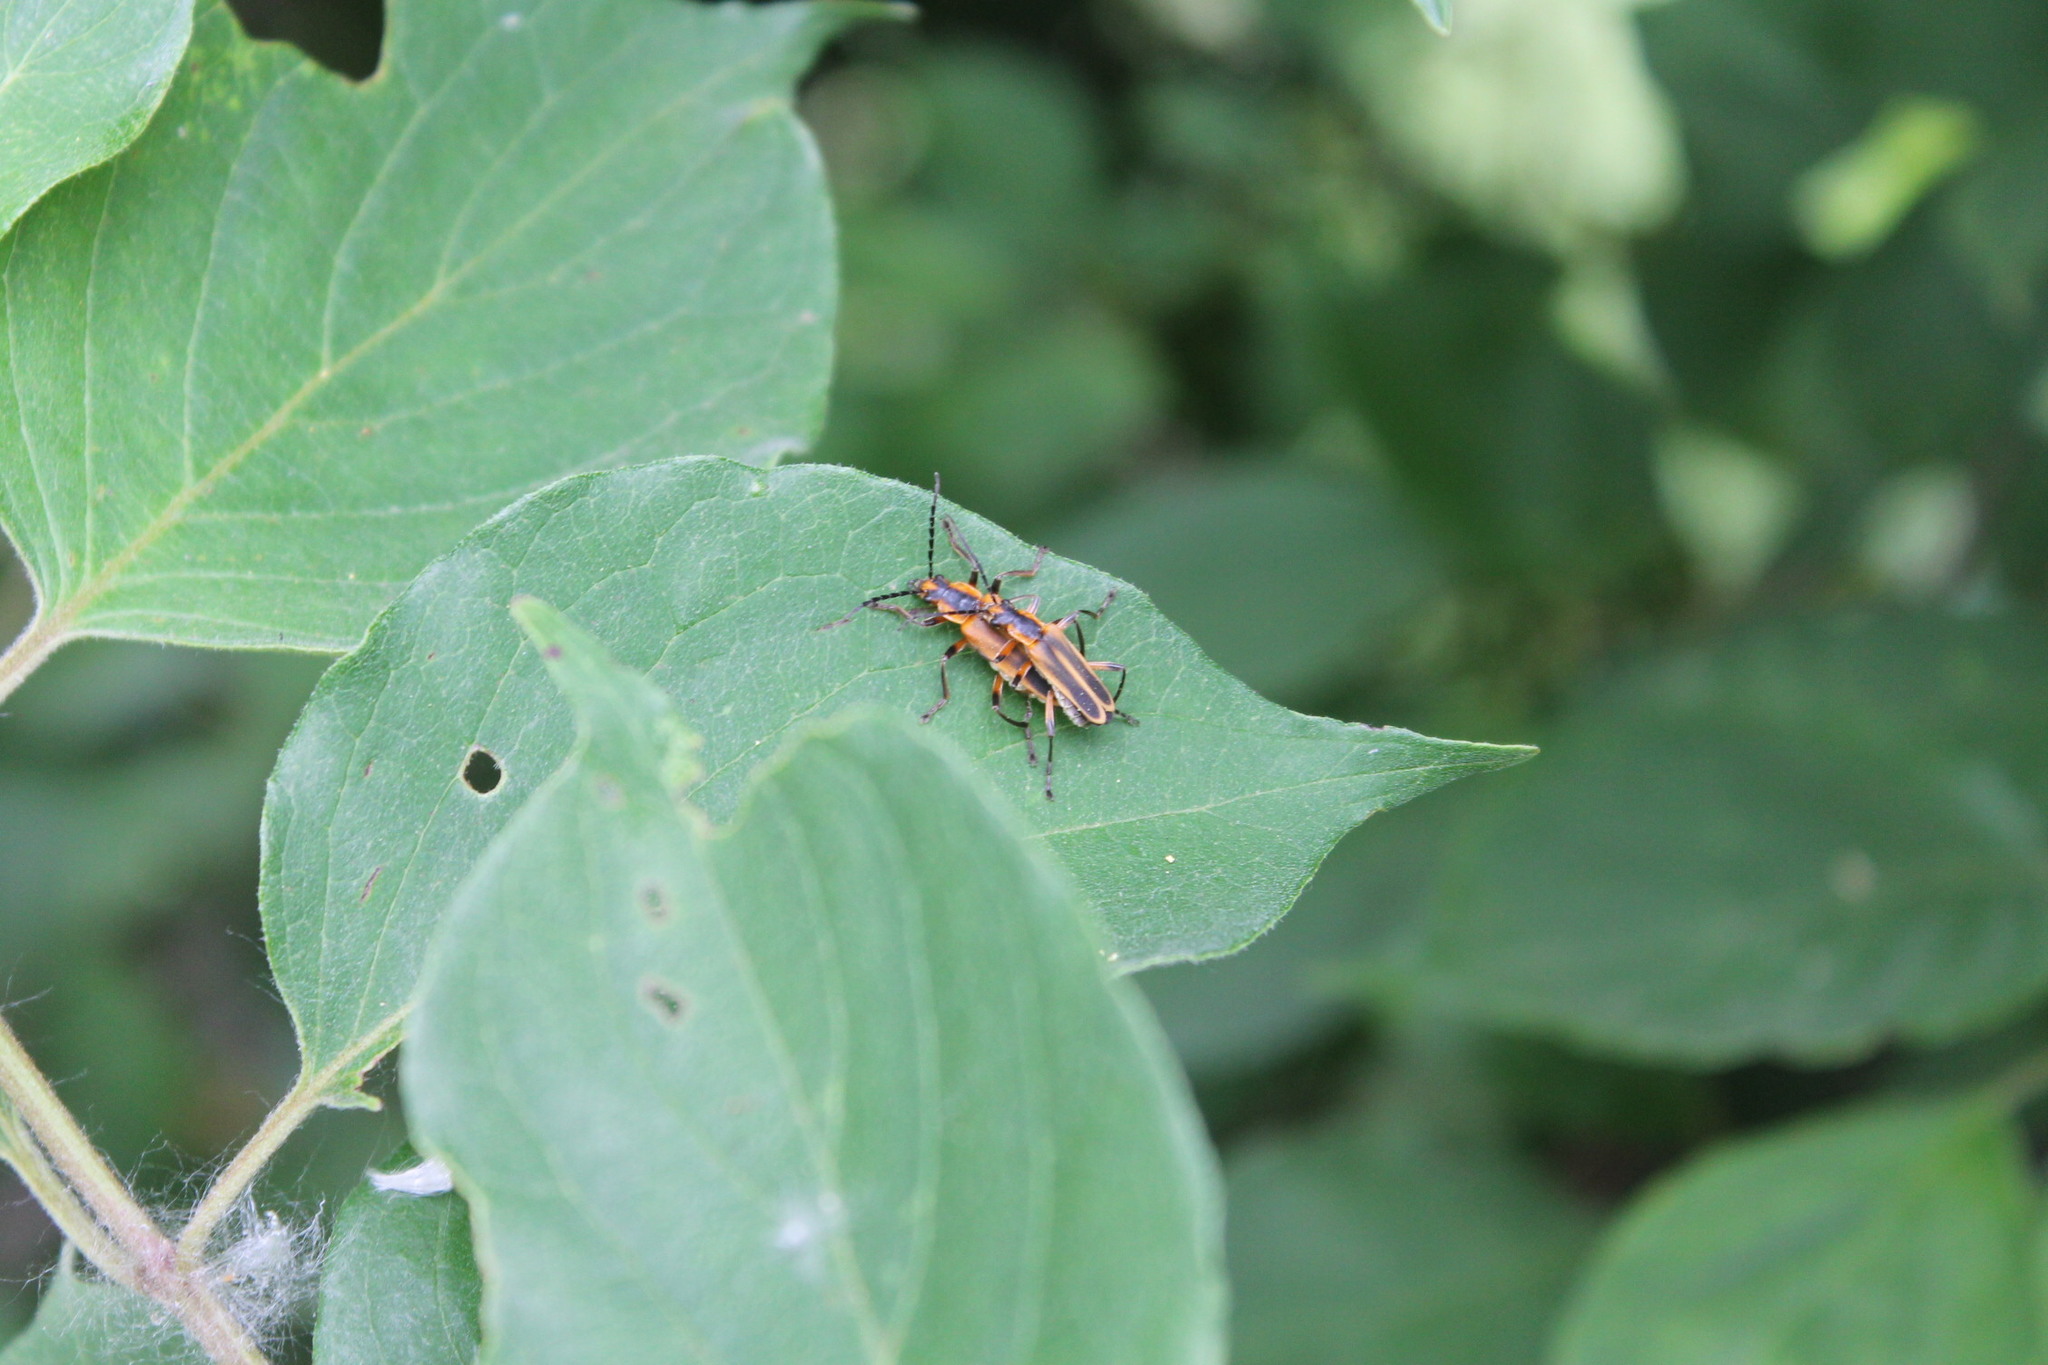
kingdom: Animalia
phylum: Arthropoda
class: Insecta
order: Coleoptera
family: Cantharidae
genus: Chauliognathus
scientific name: Chauliognathus marginatus
